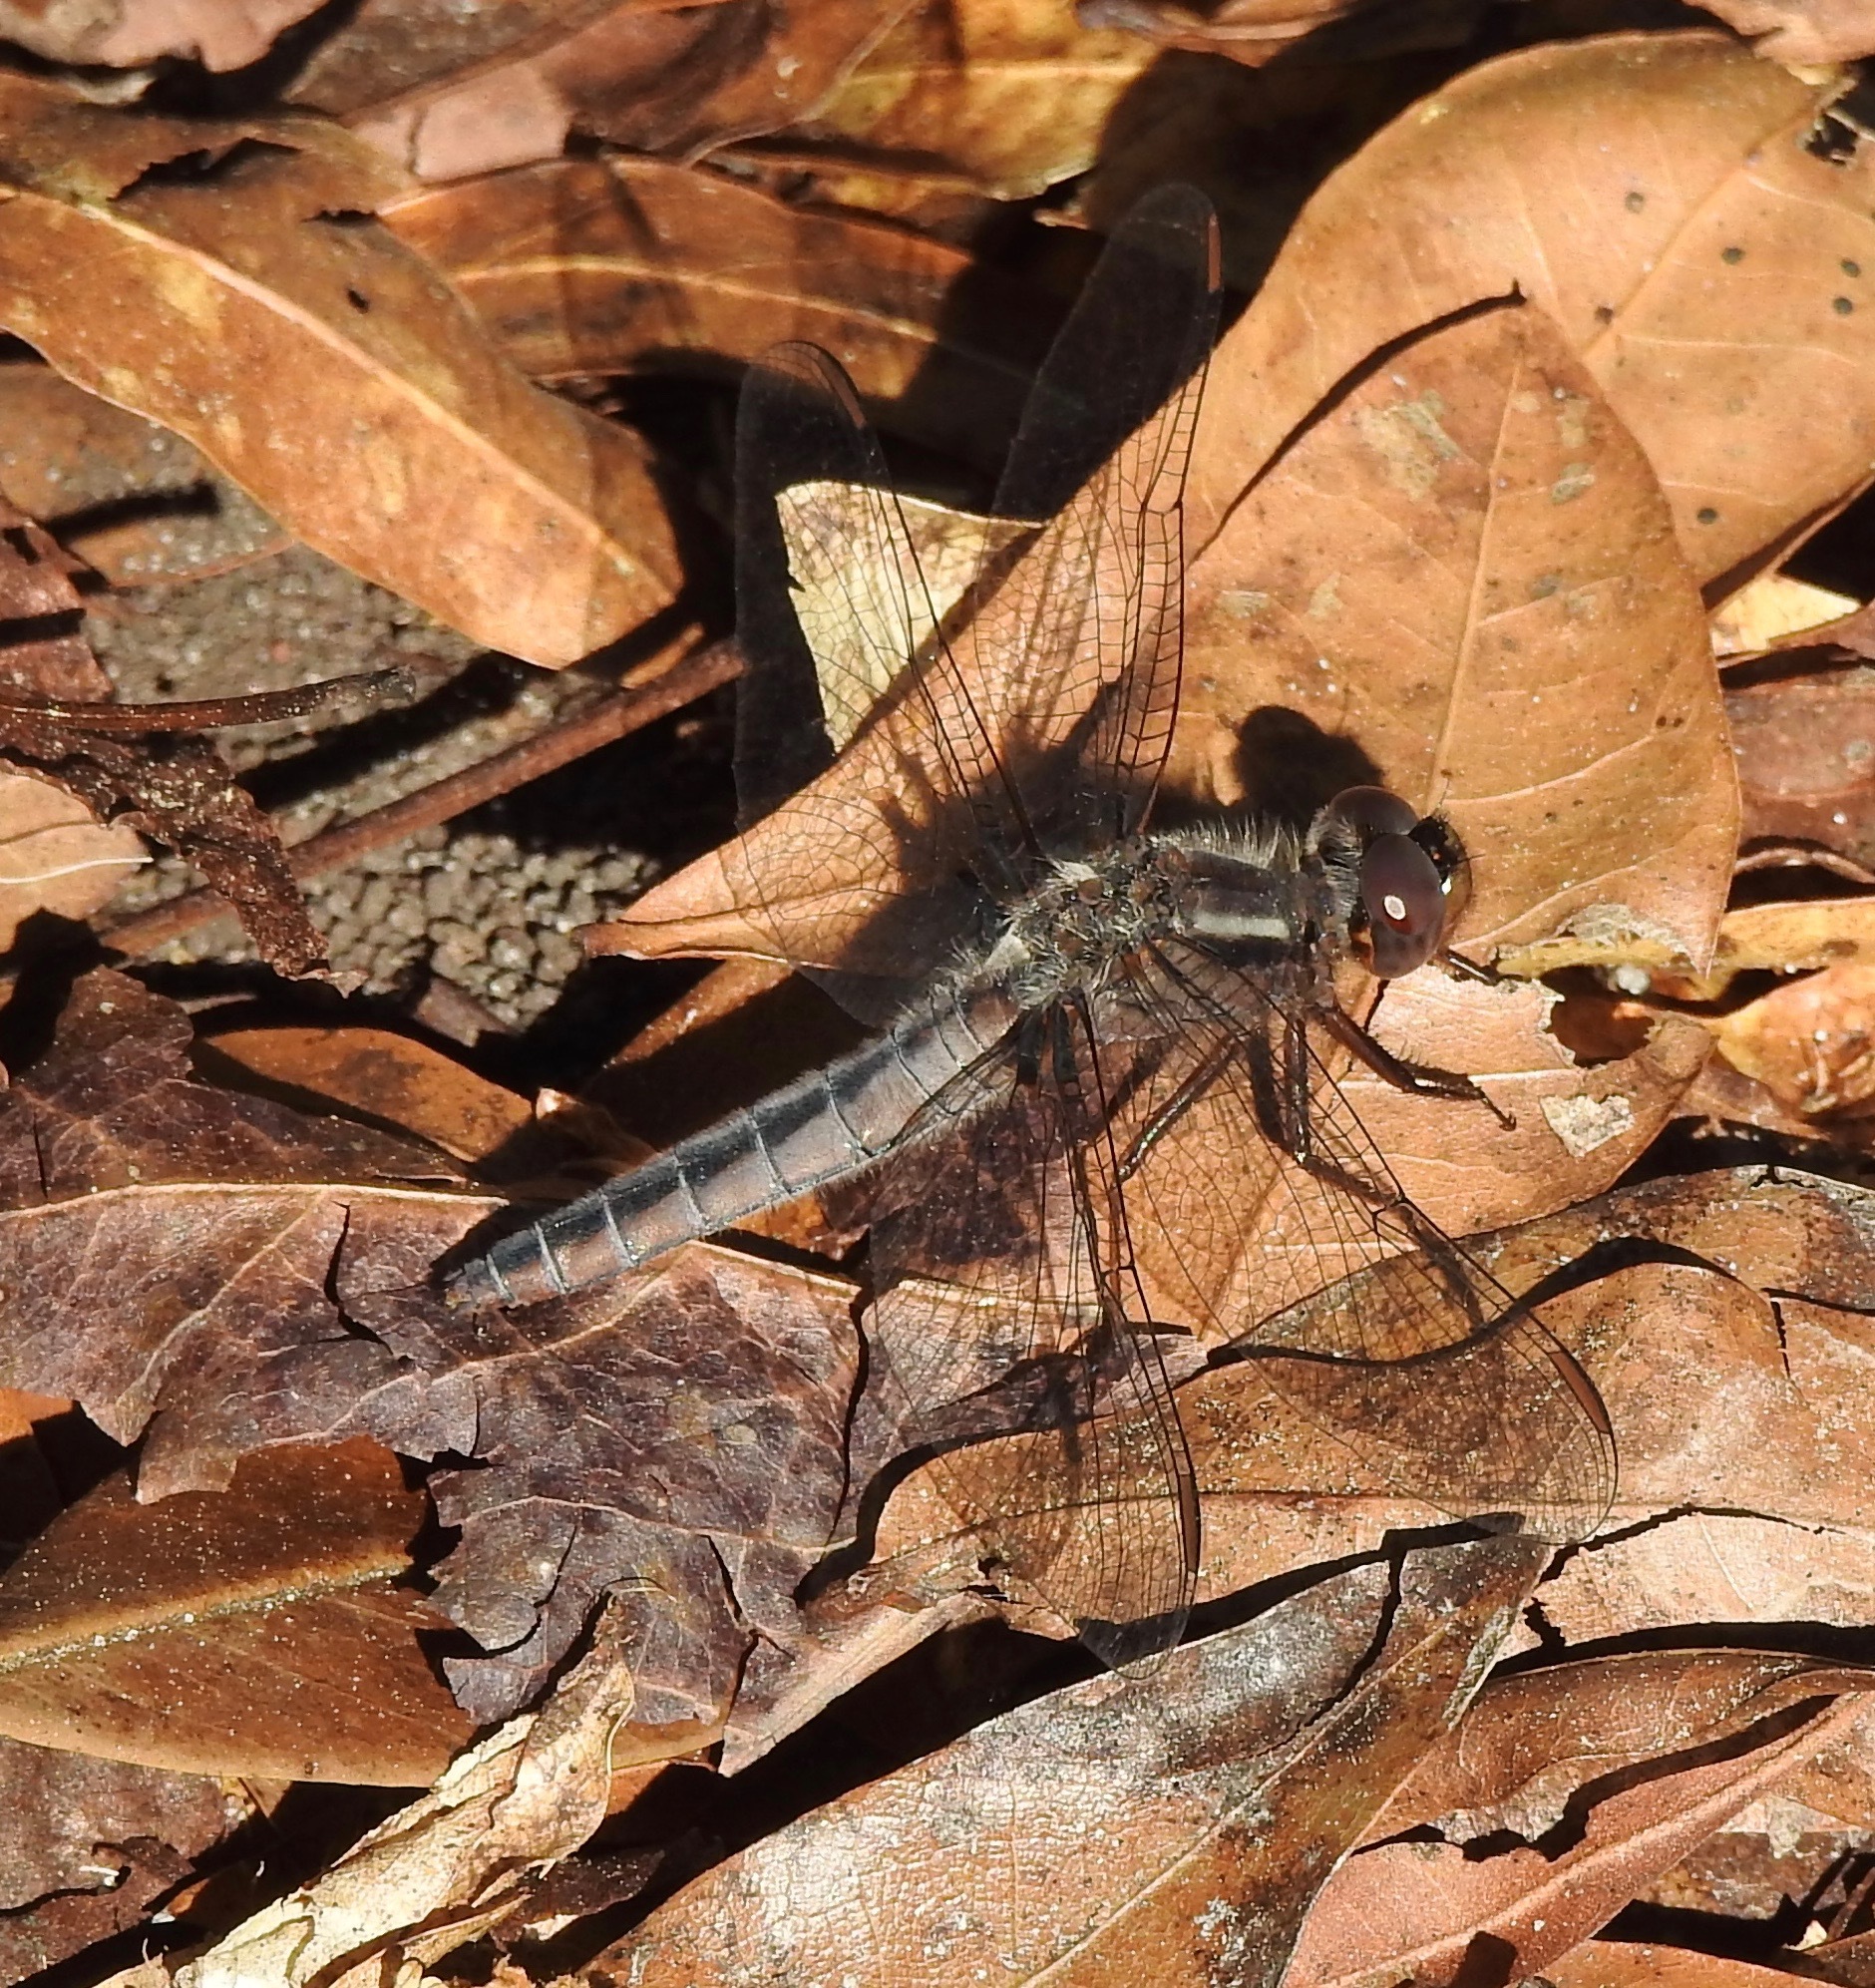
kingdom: Animalia
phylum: Arthropoda
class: Insecta
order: Odonata
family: Libellulidae
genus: Ladona
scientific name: Ladona deplanata
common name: Blue corporal
